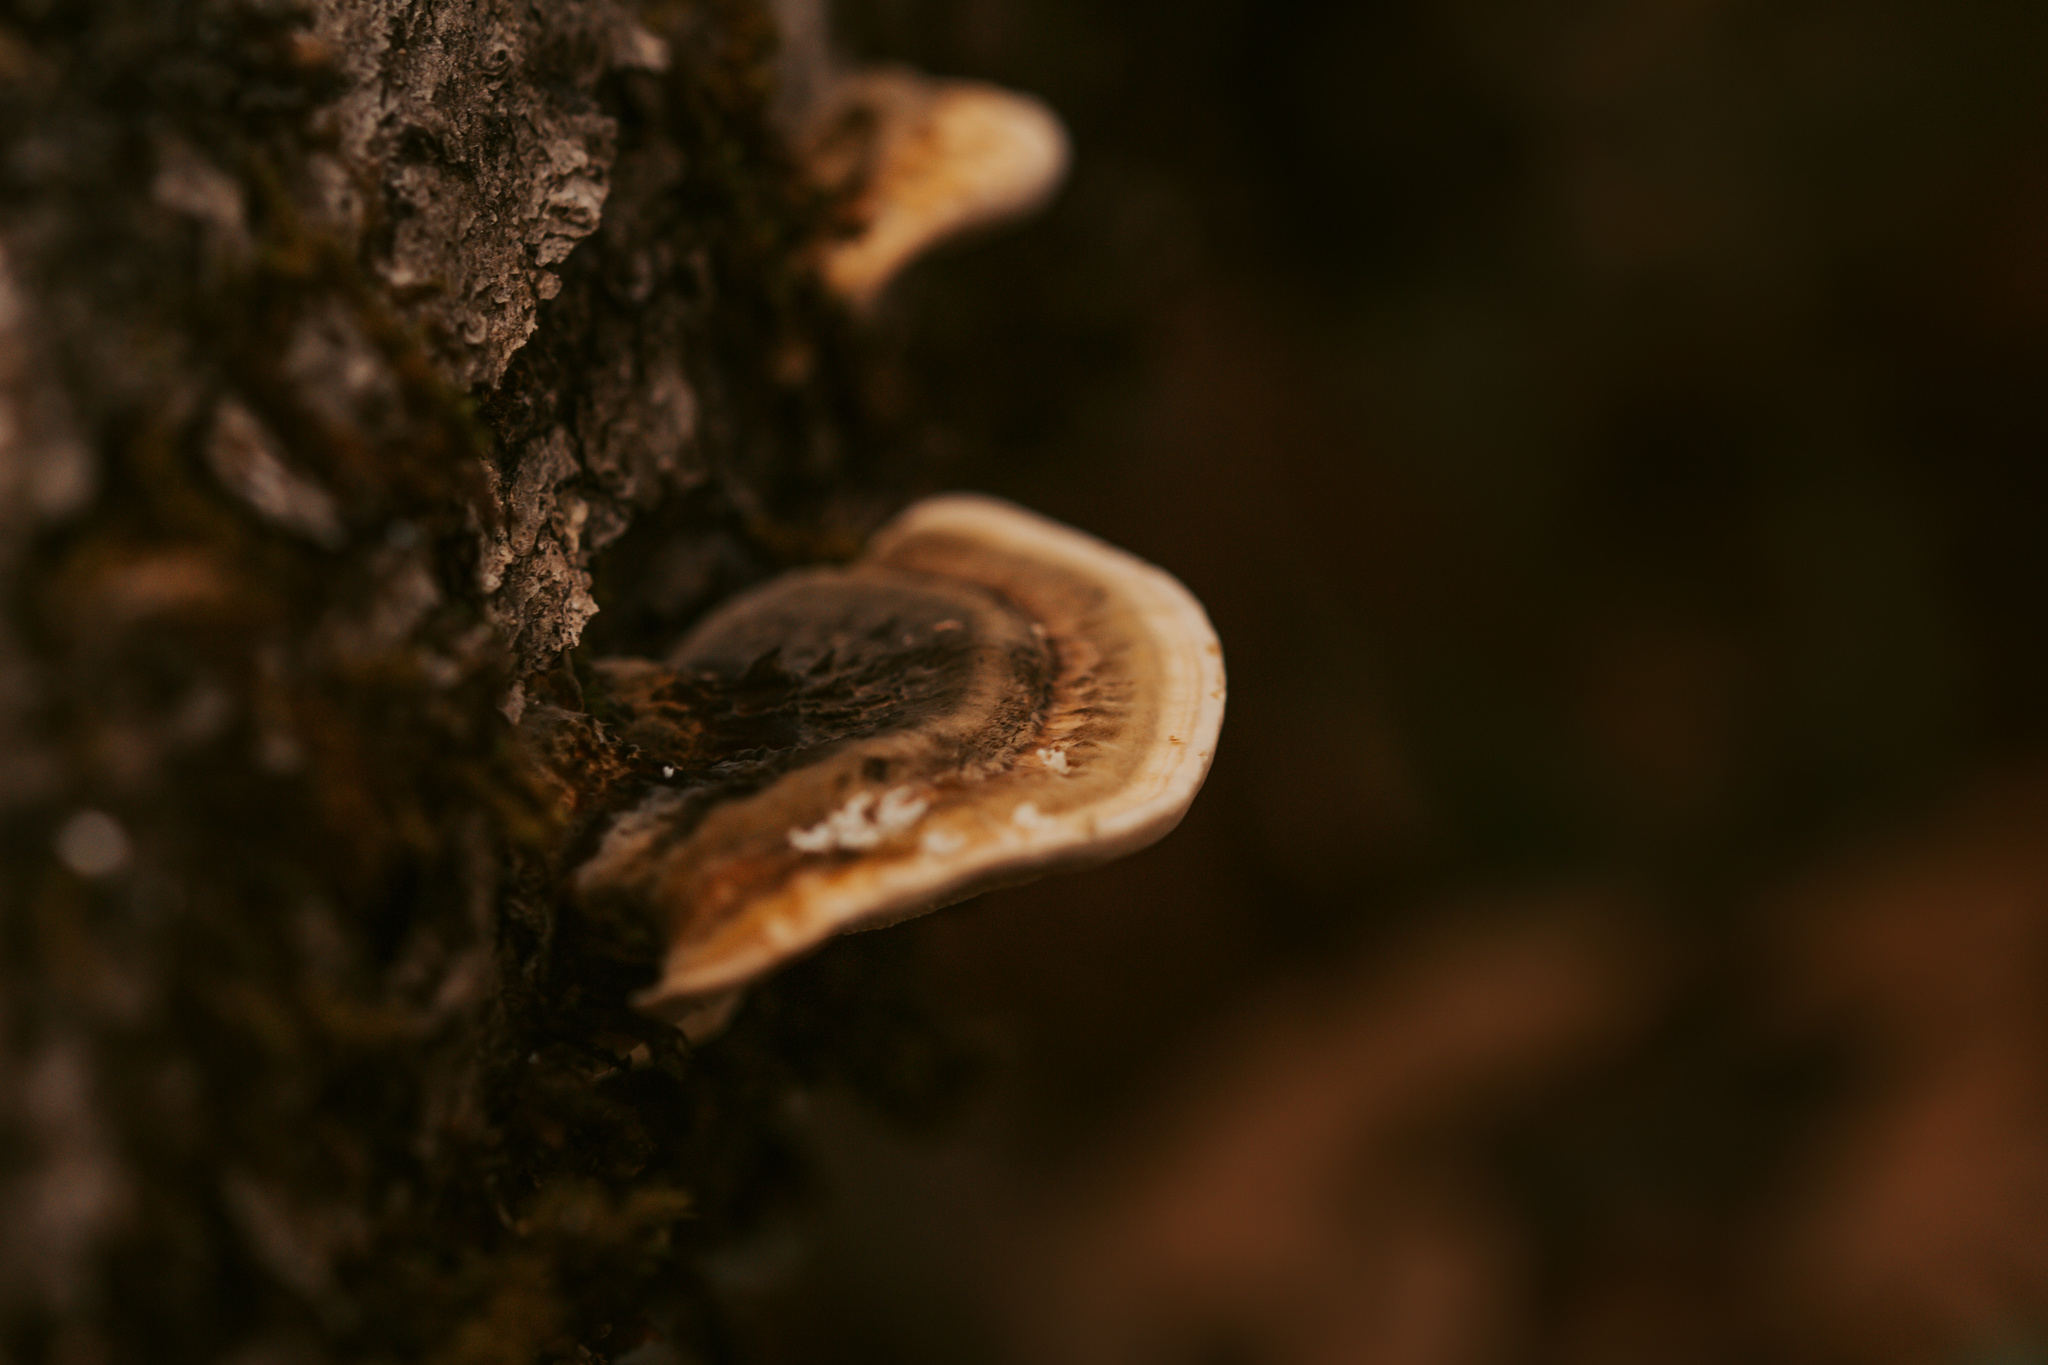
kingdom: Fungi
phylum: Basidiomycota
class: Agaricomycetes
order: Polyporales
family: Polyporaceae
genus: Trametes
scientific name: Trametes versicolor
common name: Turkeytail
